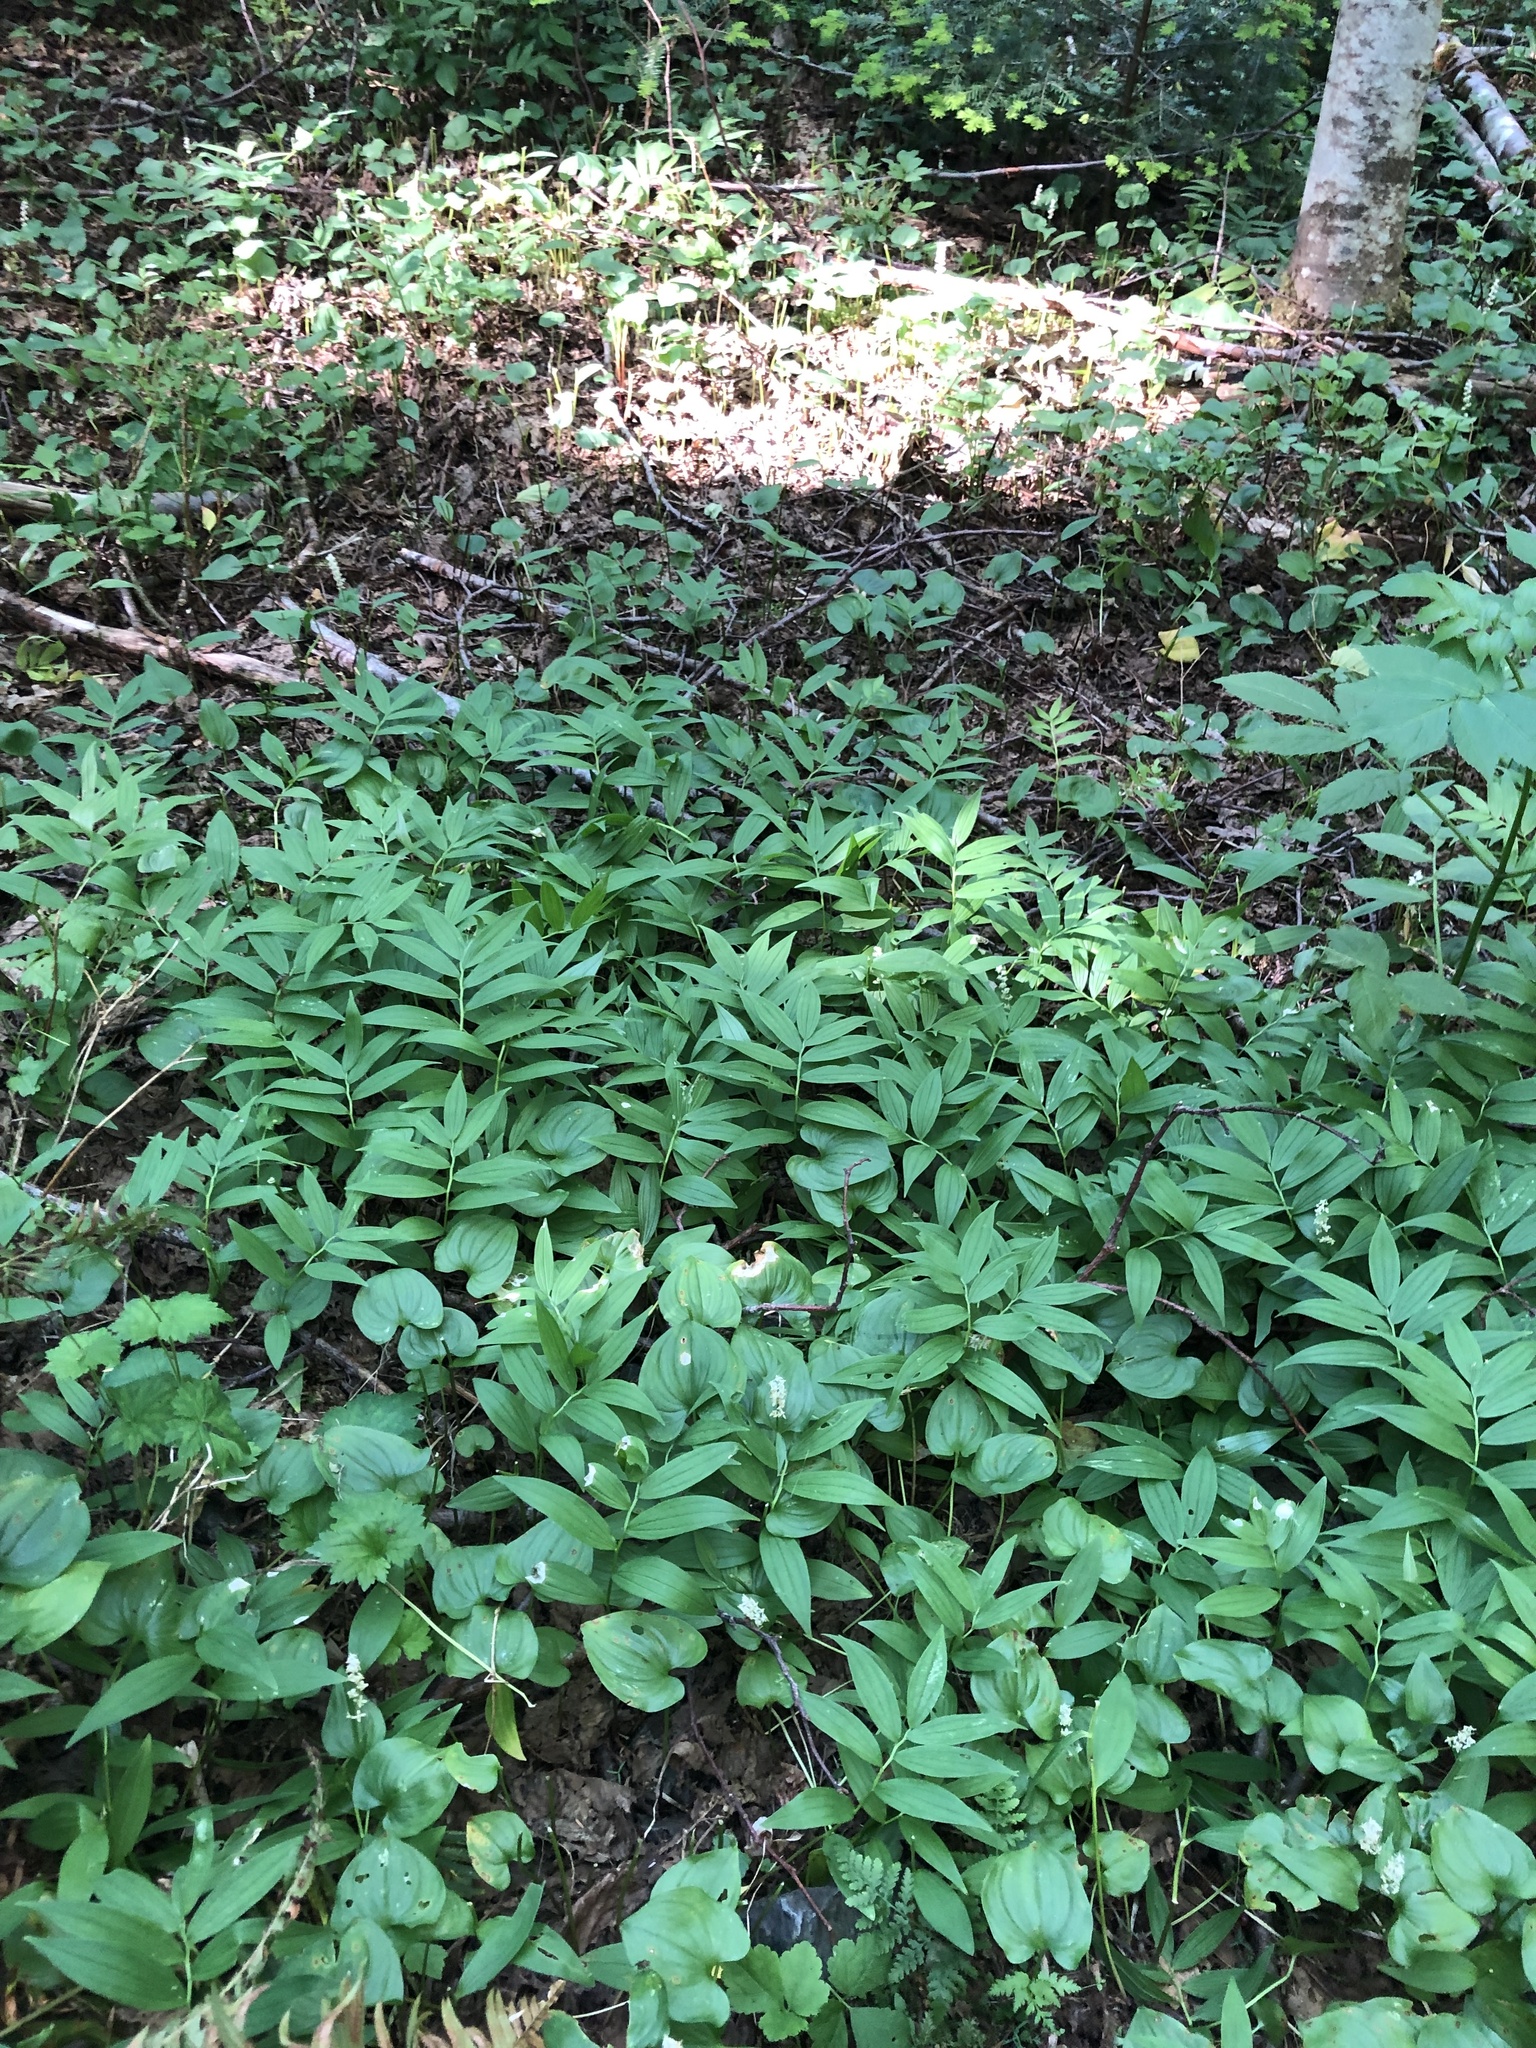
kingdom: Plantae
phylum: Tracheophyta
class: Liliopsida
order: Asparagales
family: Asparagaceae
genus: Maianthemum
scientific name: Maianthemum stellatum
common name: Little false solomon's seal
